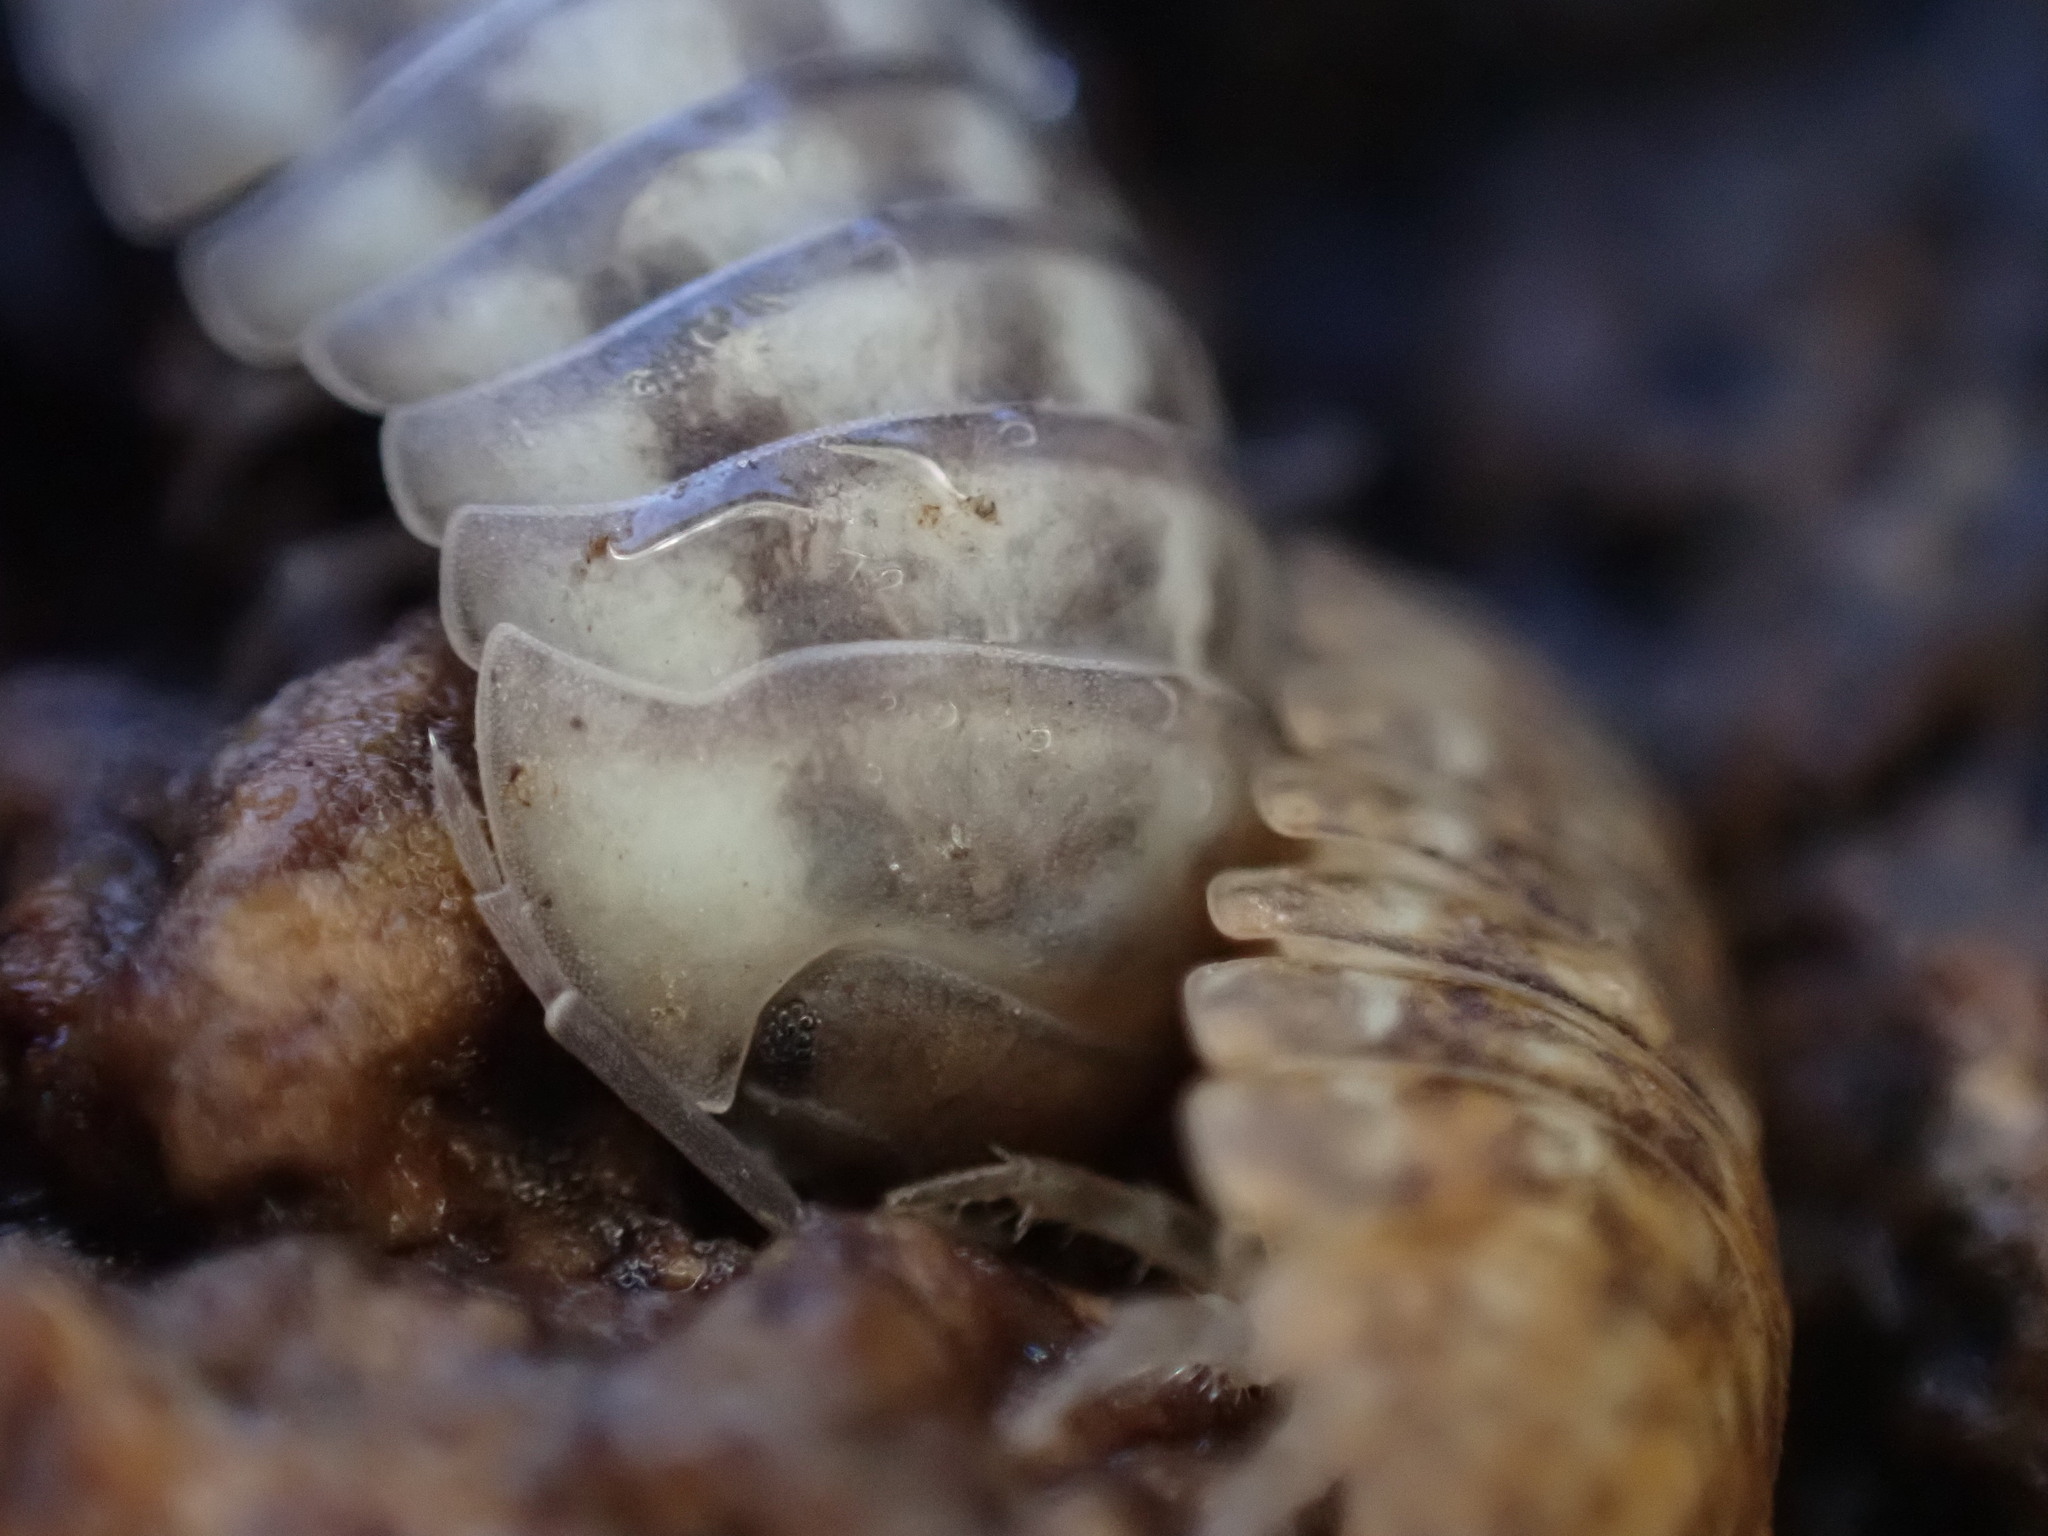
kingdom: Animalia
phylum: Arthropoda
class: Malacostraca
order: Isopoda
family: Armadillidiidae
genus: Armadillidium
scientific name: Armadillidium nasatum
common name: Isopod
